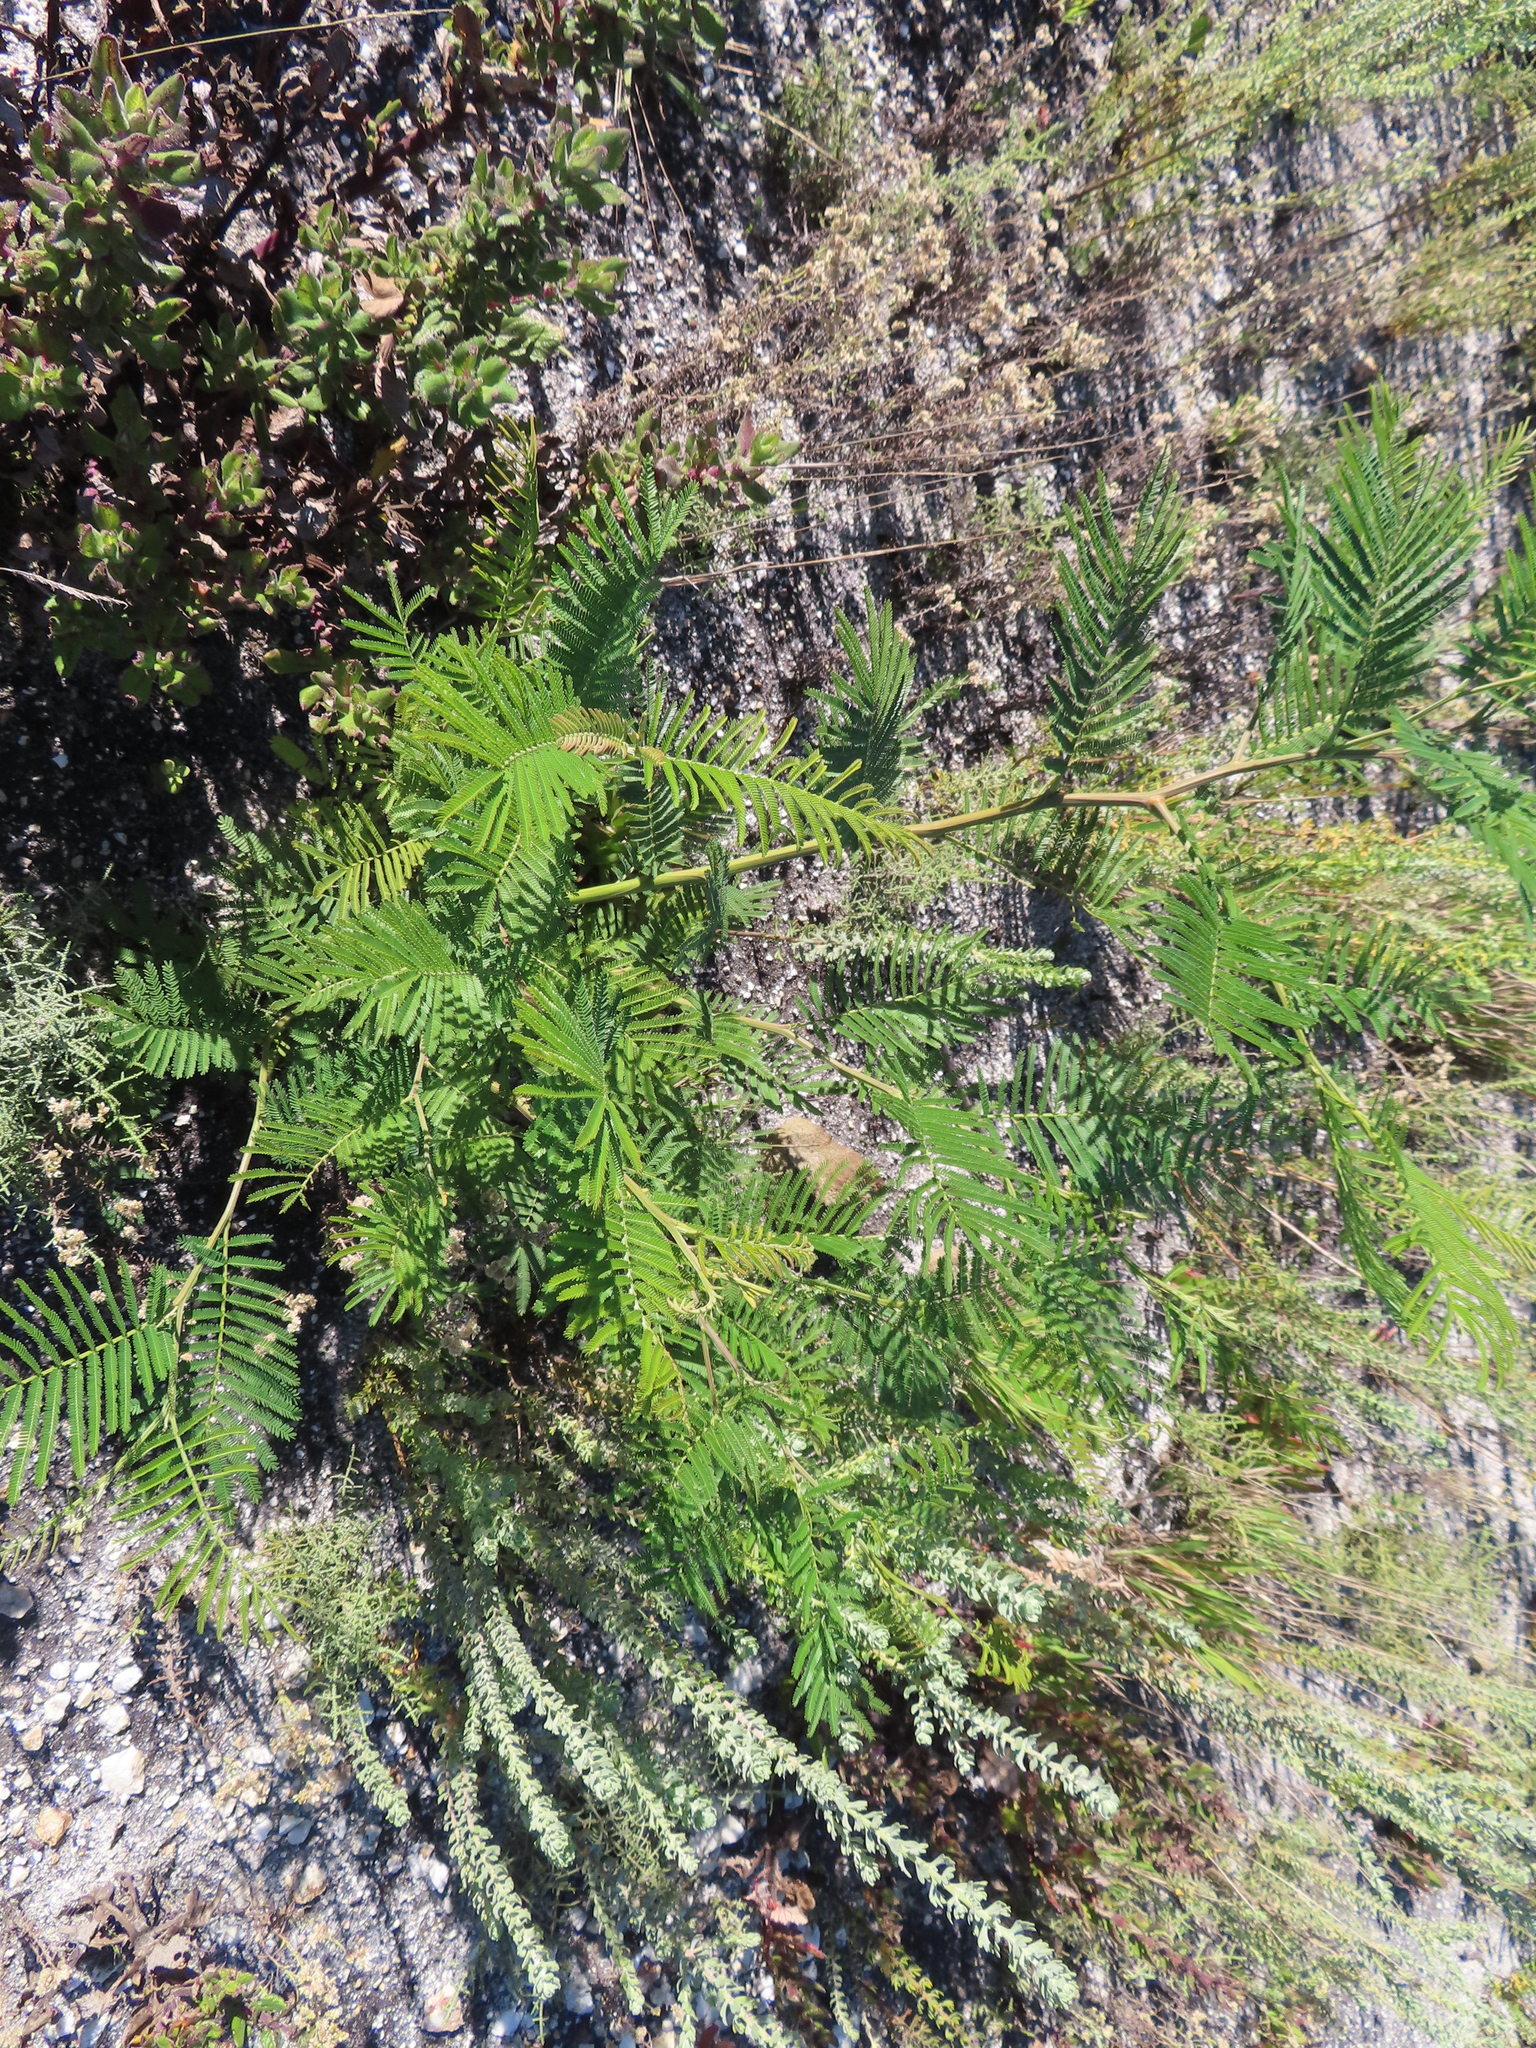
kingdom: Plantae
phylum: Tracheophyta
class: Magnoliopsida
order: Fabales
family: Fabaceae
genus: Acacia
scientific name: Acacia mearnsii
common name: Black wattle
